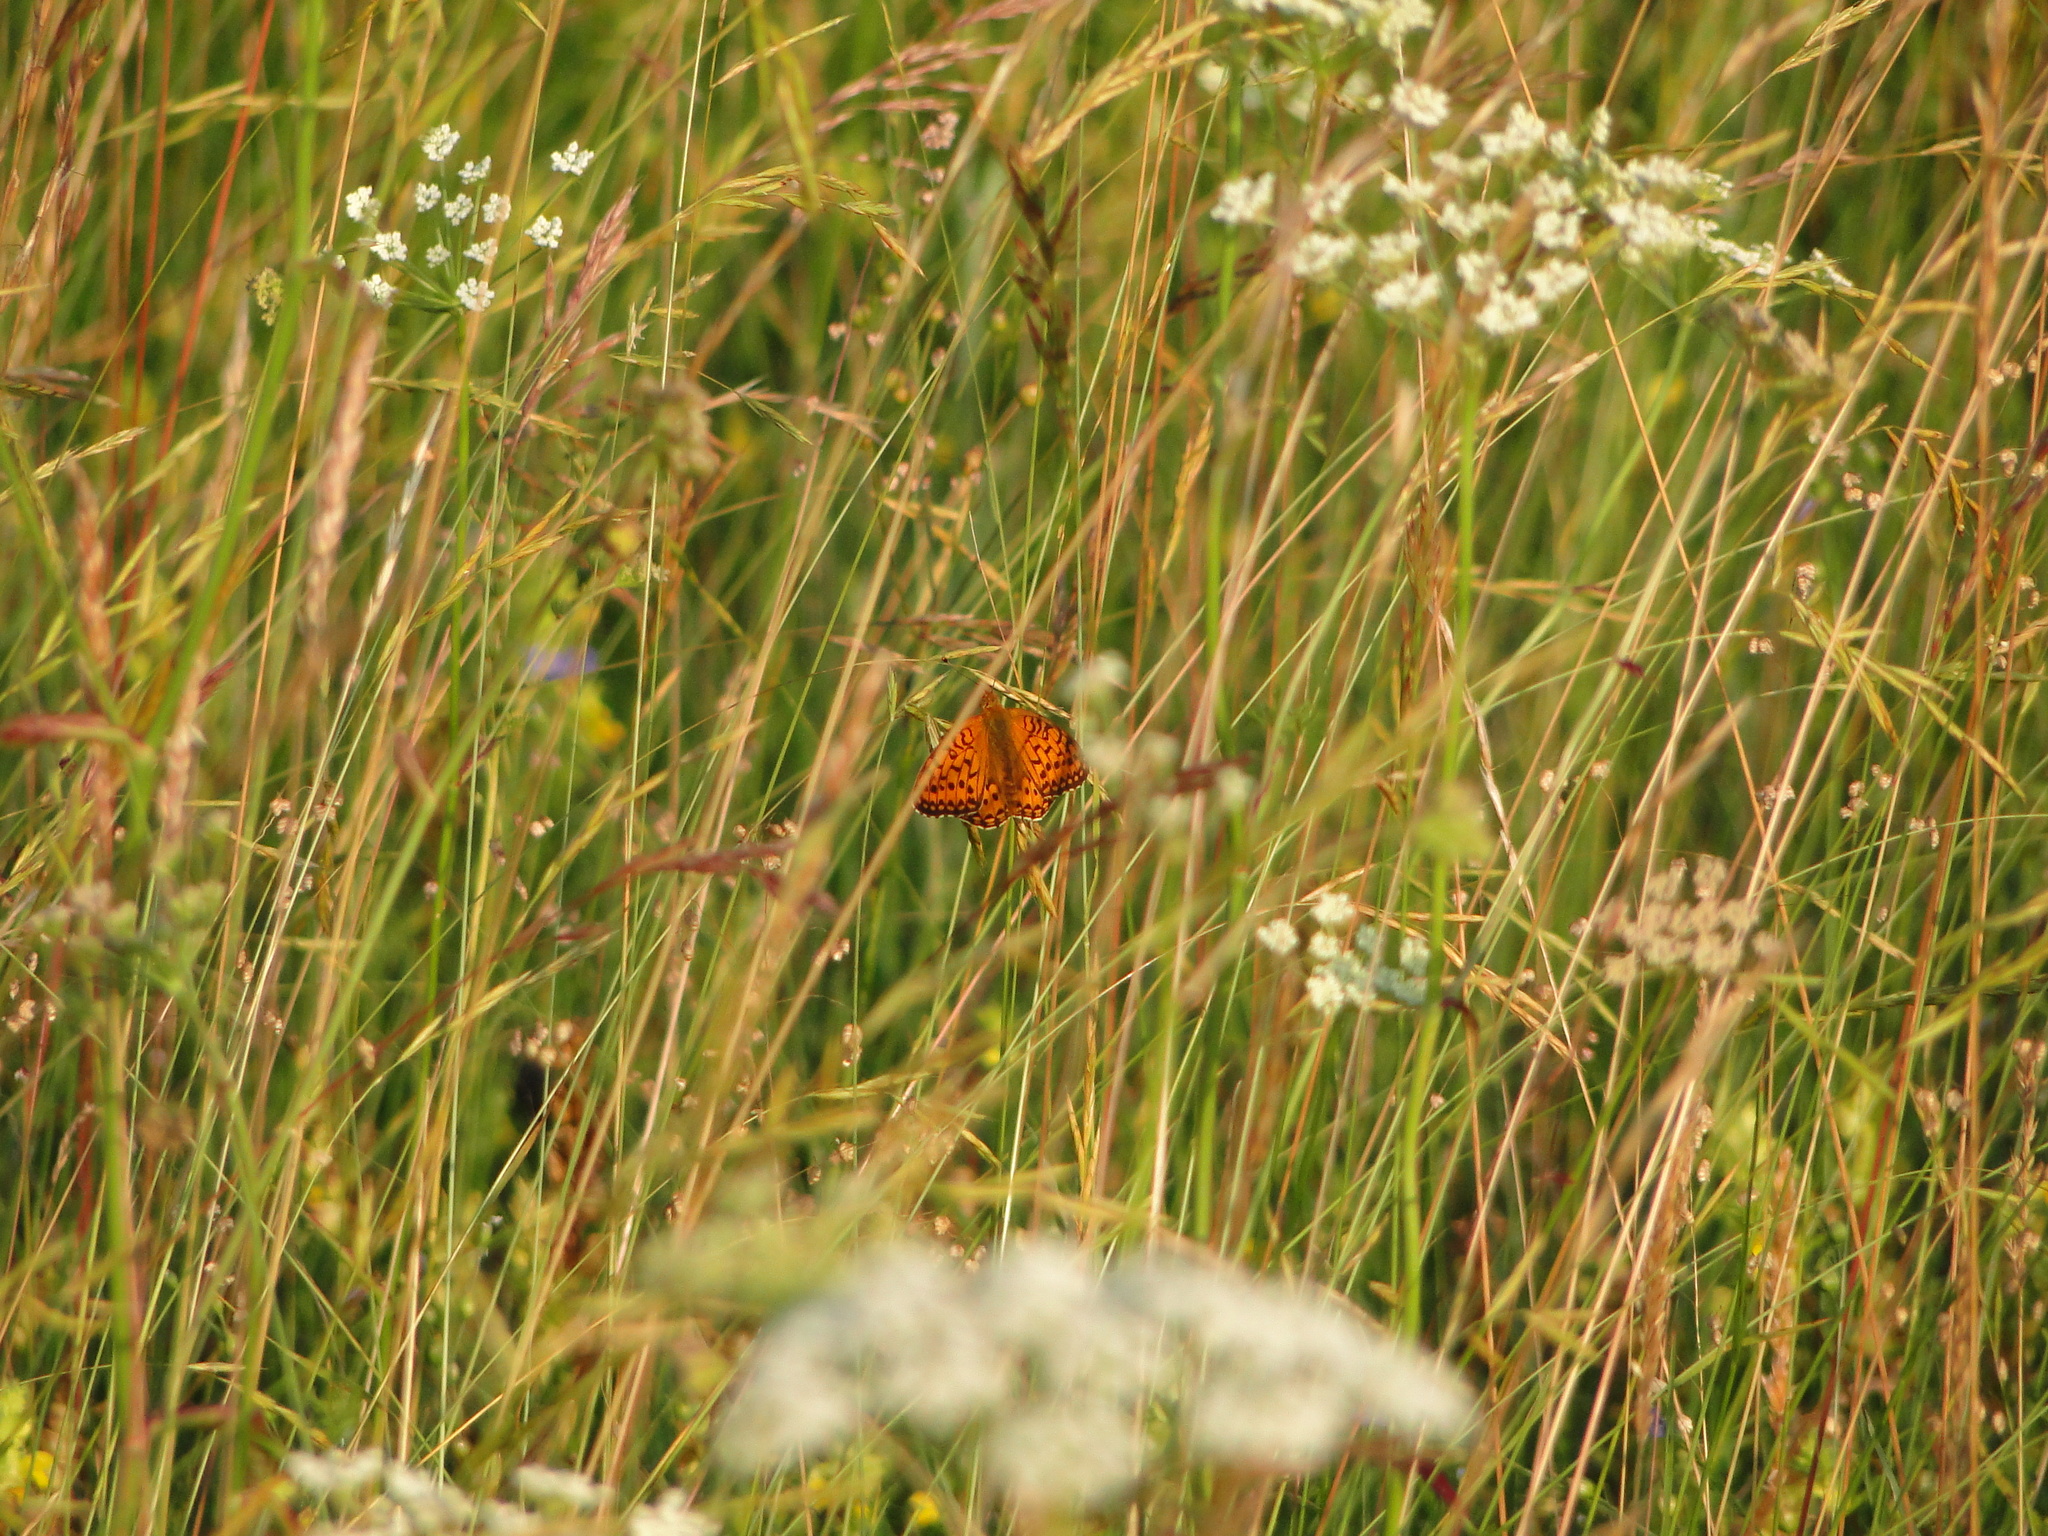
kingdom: Animalia
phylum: Arthropoda
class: Insecta
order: Lepidoptera
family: Nymphalidae
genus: Speyeria
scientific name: Speyeria aglaja
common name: Dark green fritillary
